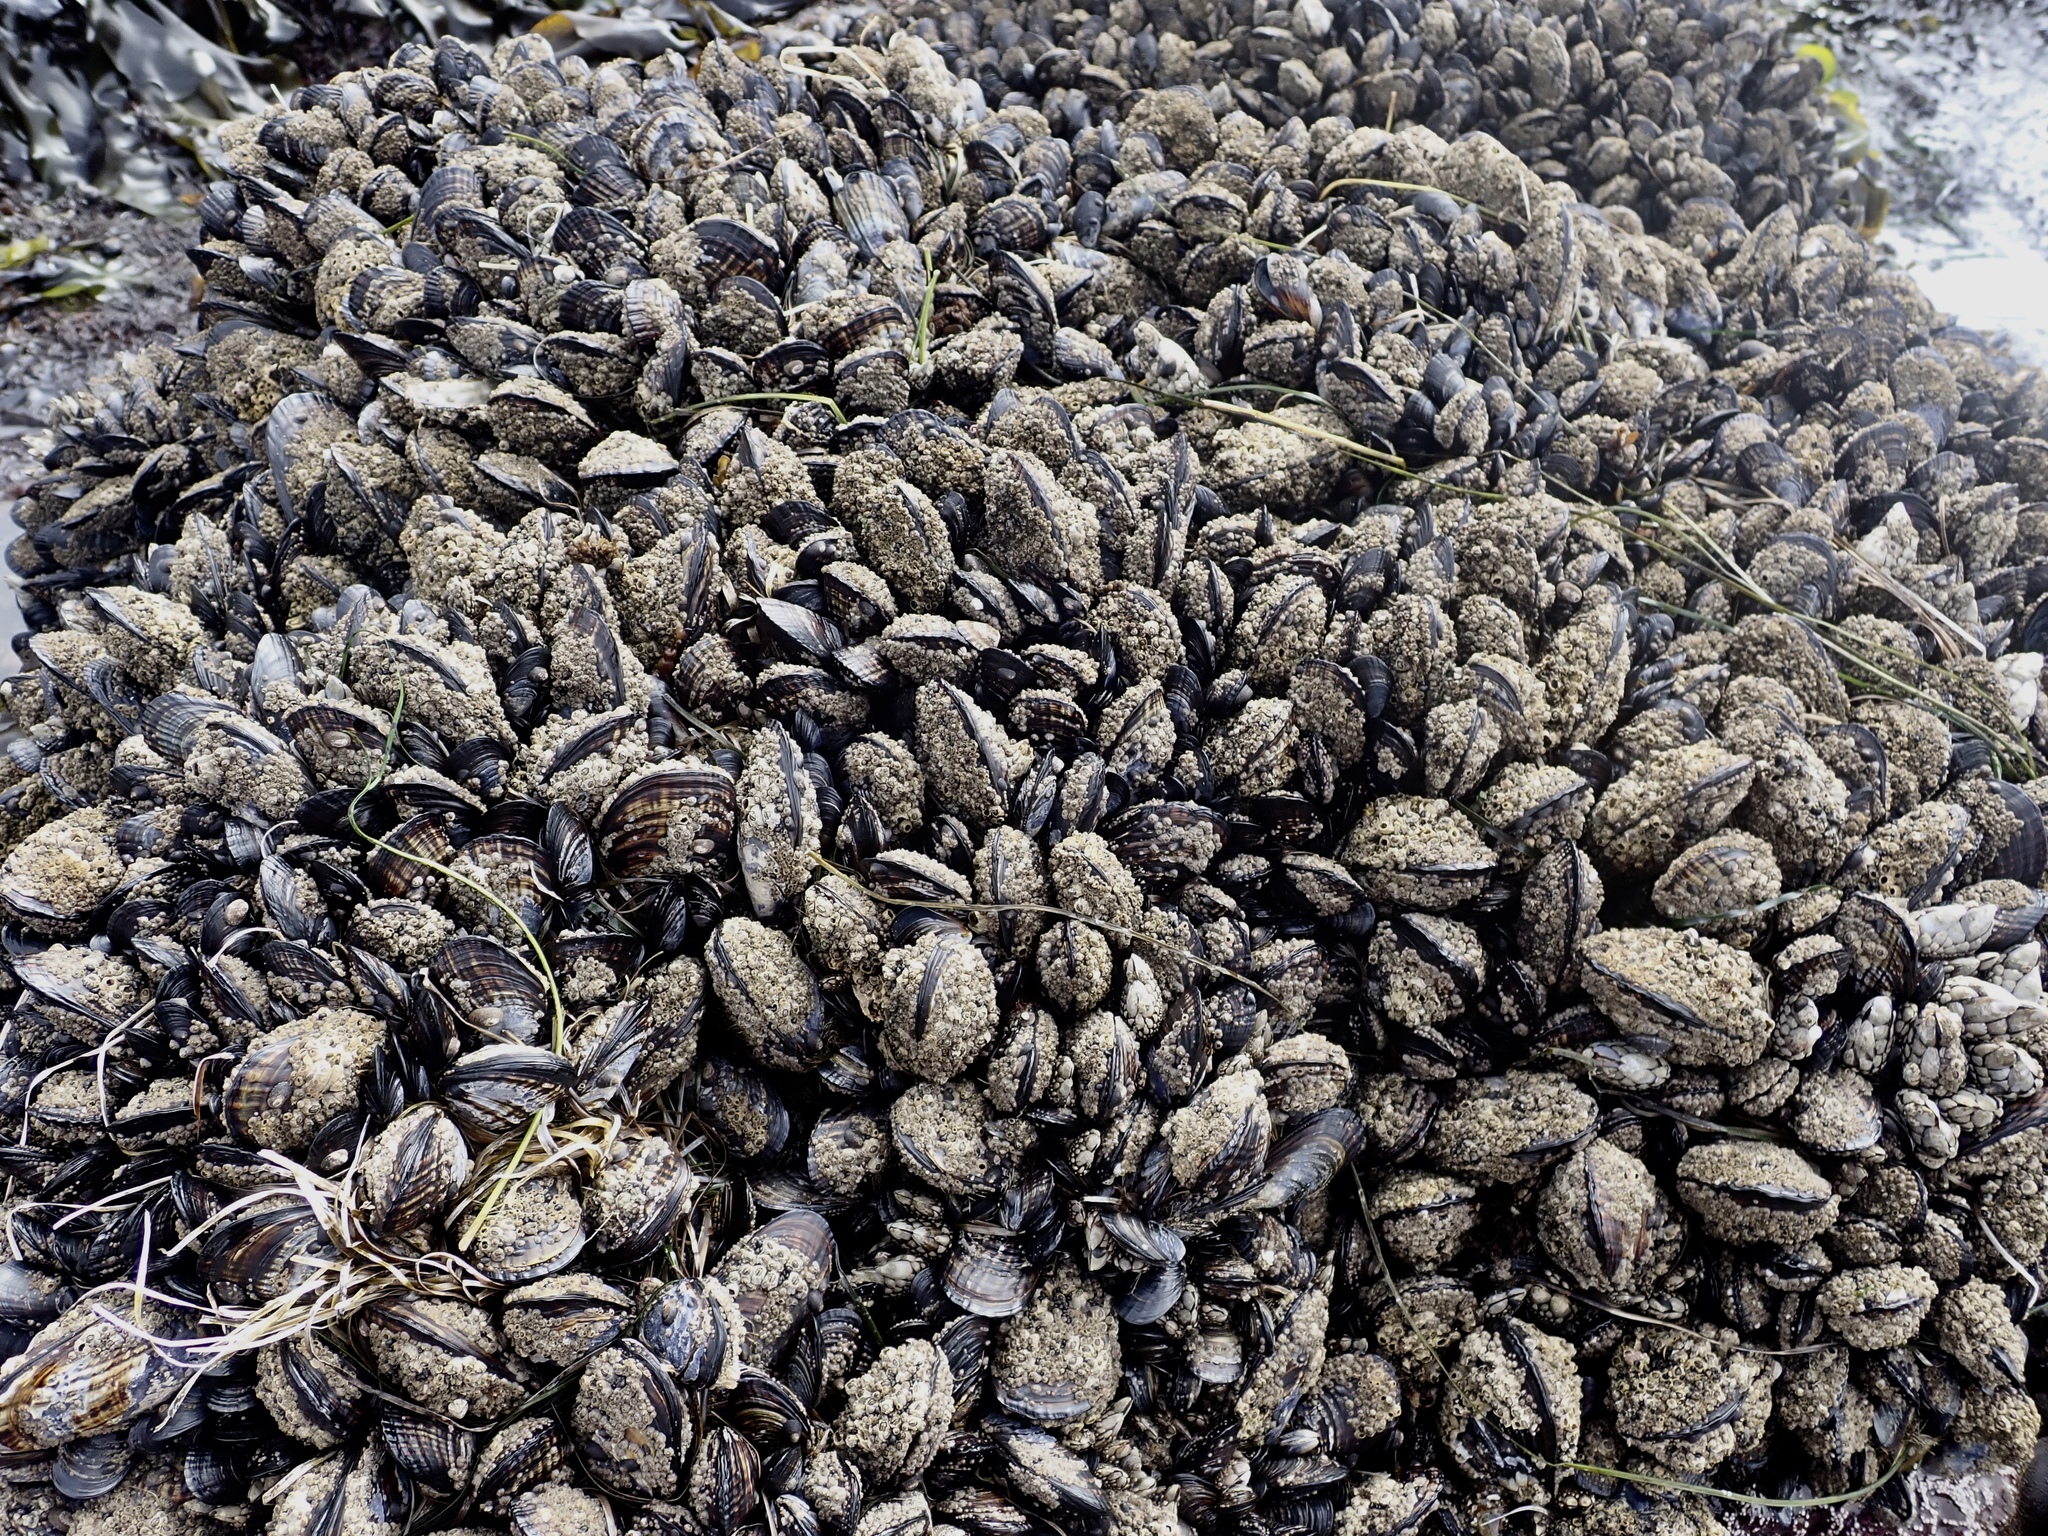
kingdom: Animalia
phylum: Mollusca
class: Bivalvia
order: Mytilida
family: Mytilidae
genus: Mytilus
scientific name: Mytilus californianus
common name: California mussel
